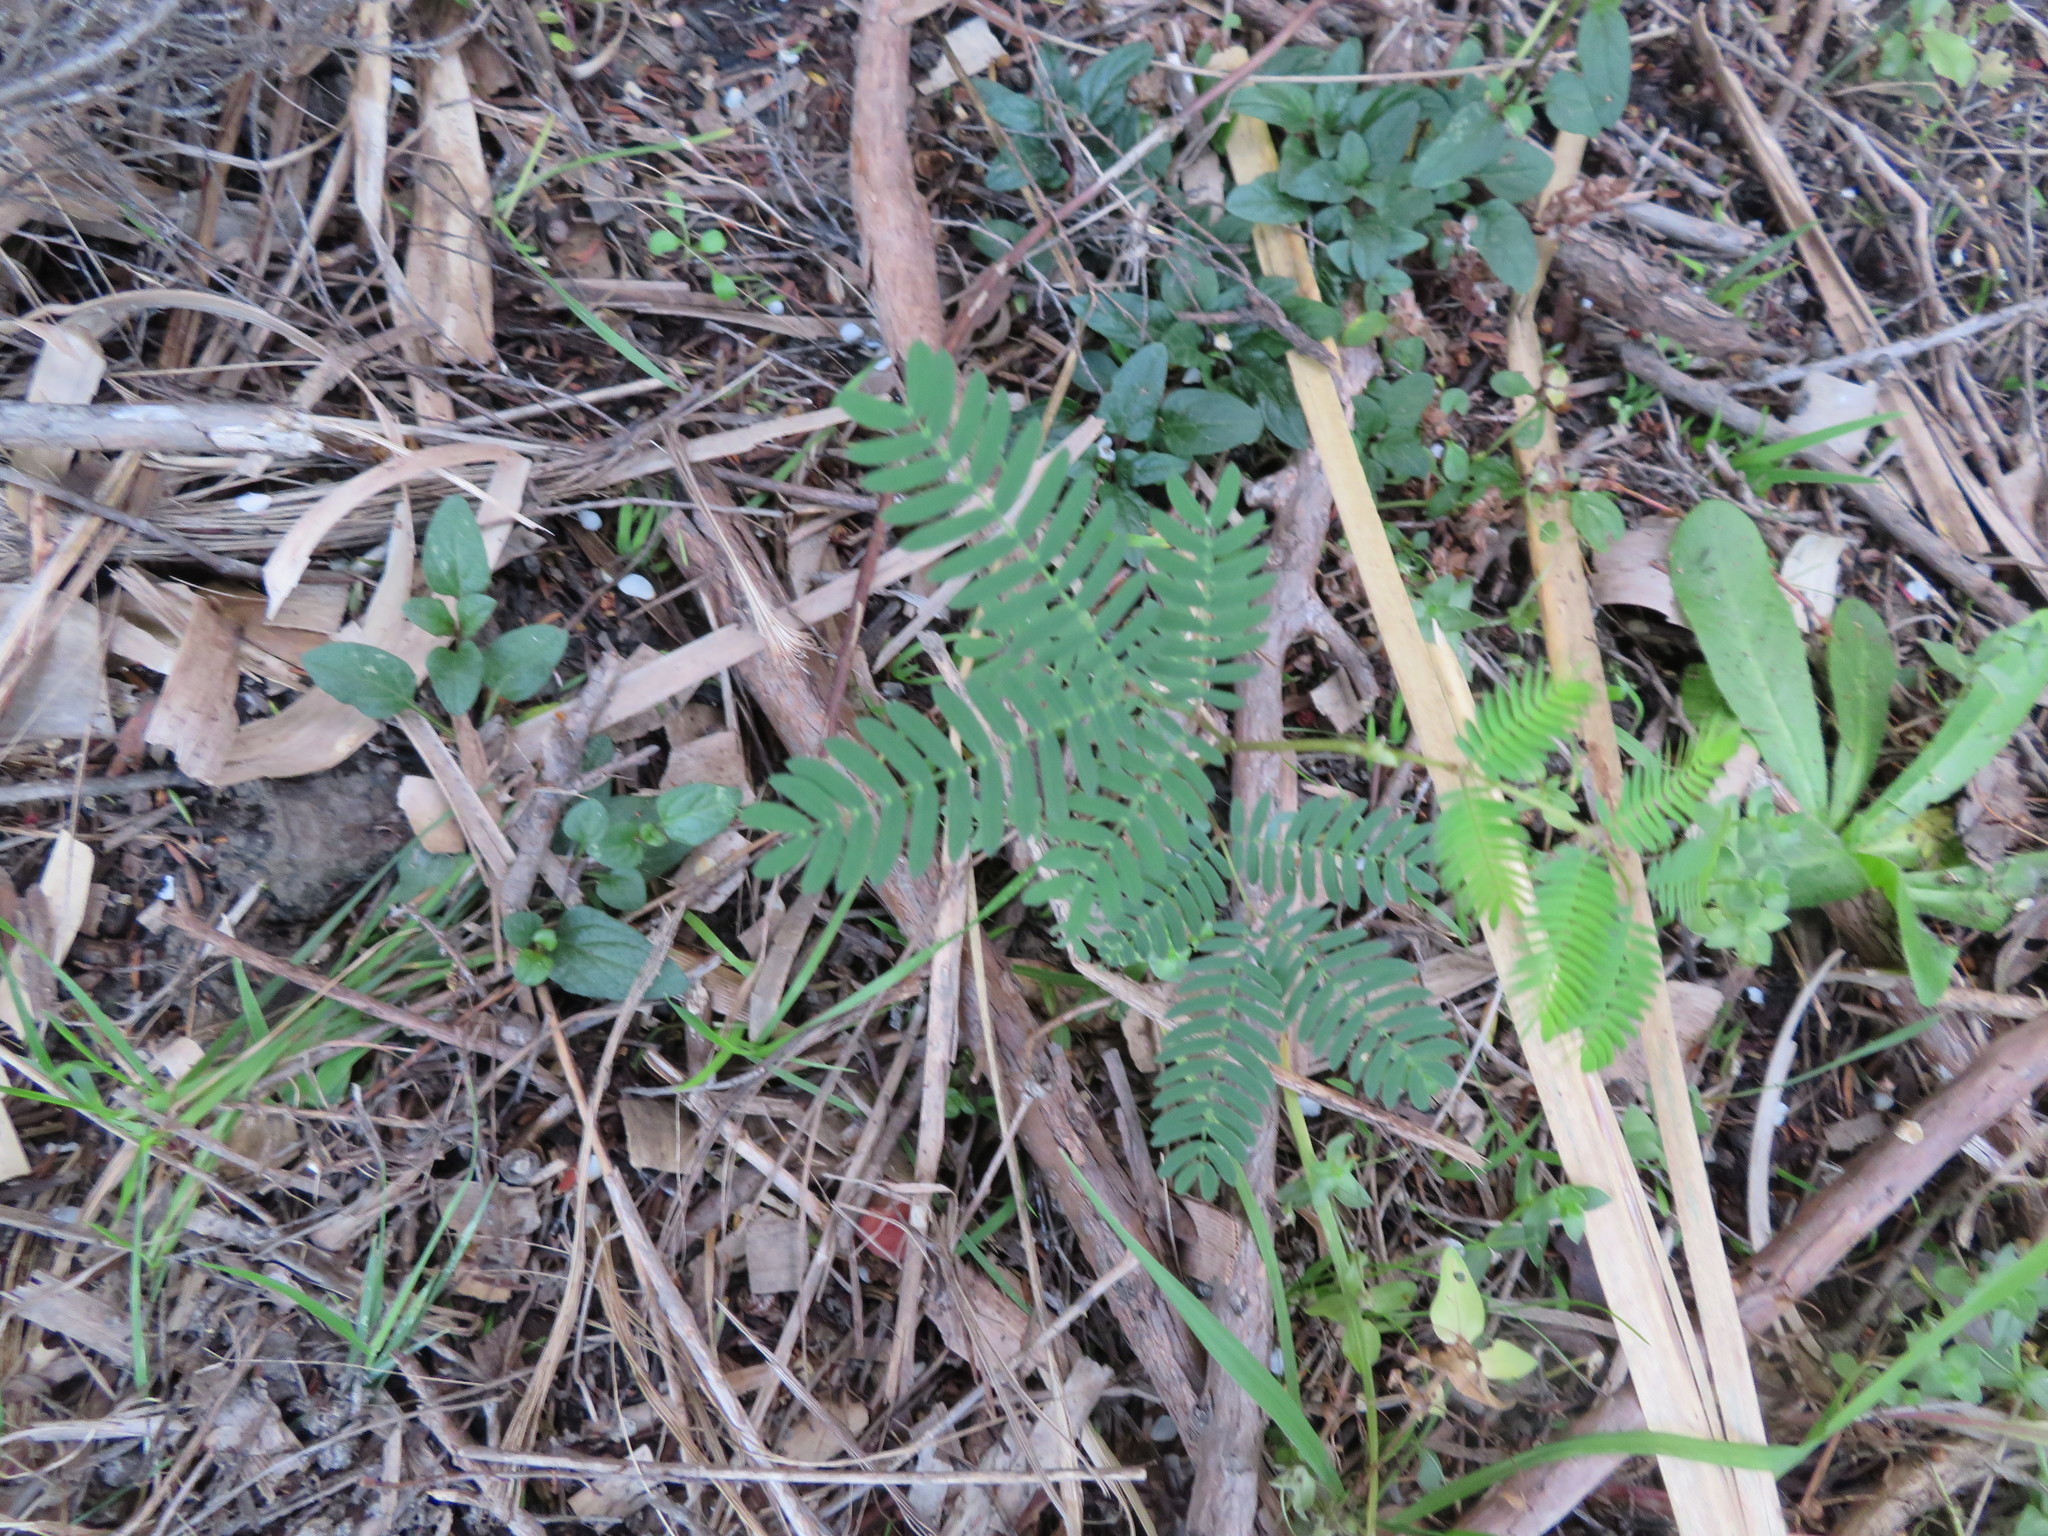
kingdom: Plantae
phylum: Tracheophyta
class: Magnoliopsida
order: Fabales
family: Fabaceae
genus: Paraserianthes
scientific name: Paraserianthes lophantha
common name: Plume albizia
